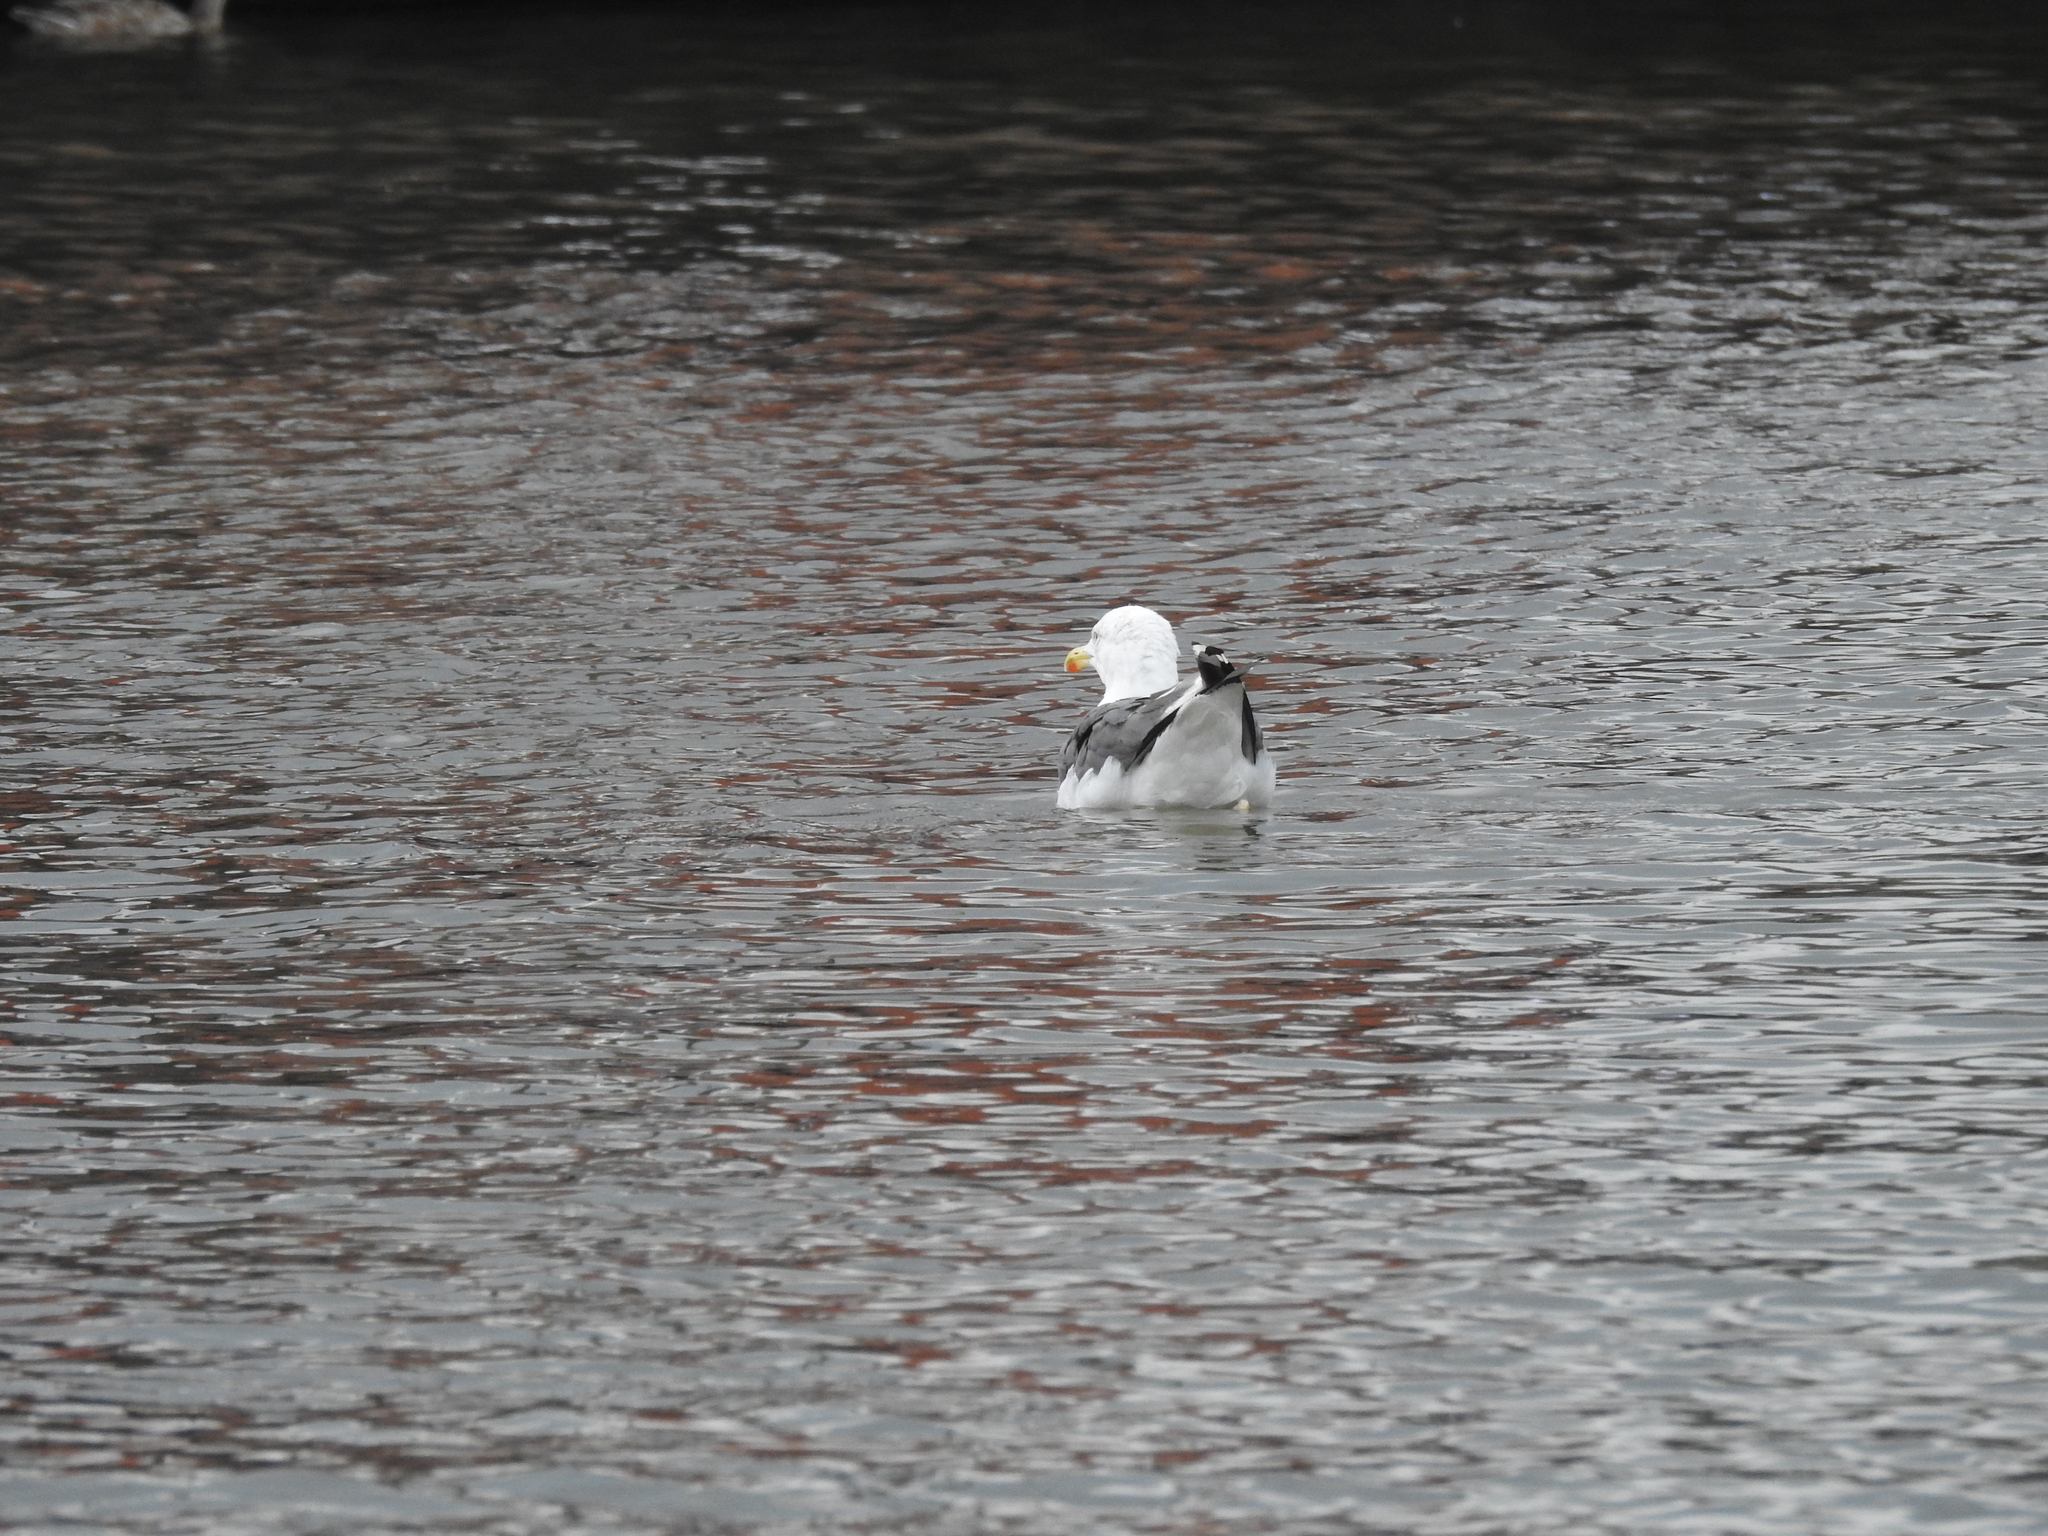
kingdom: Animalia
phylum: Chordata
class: Aves
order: Charadriiformes
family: Laridae
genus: Larus
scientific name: Larus marinus
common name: Great black-backed gull
